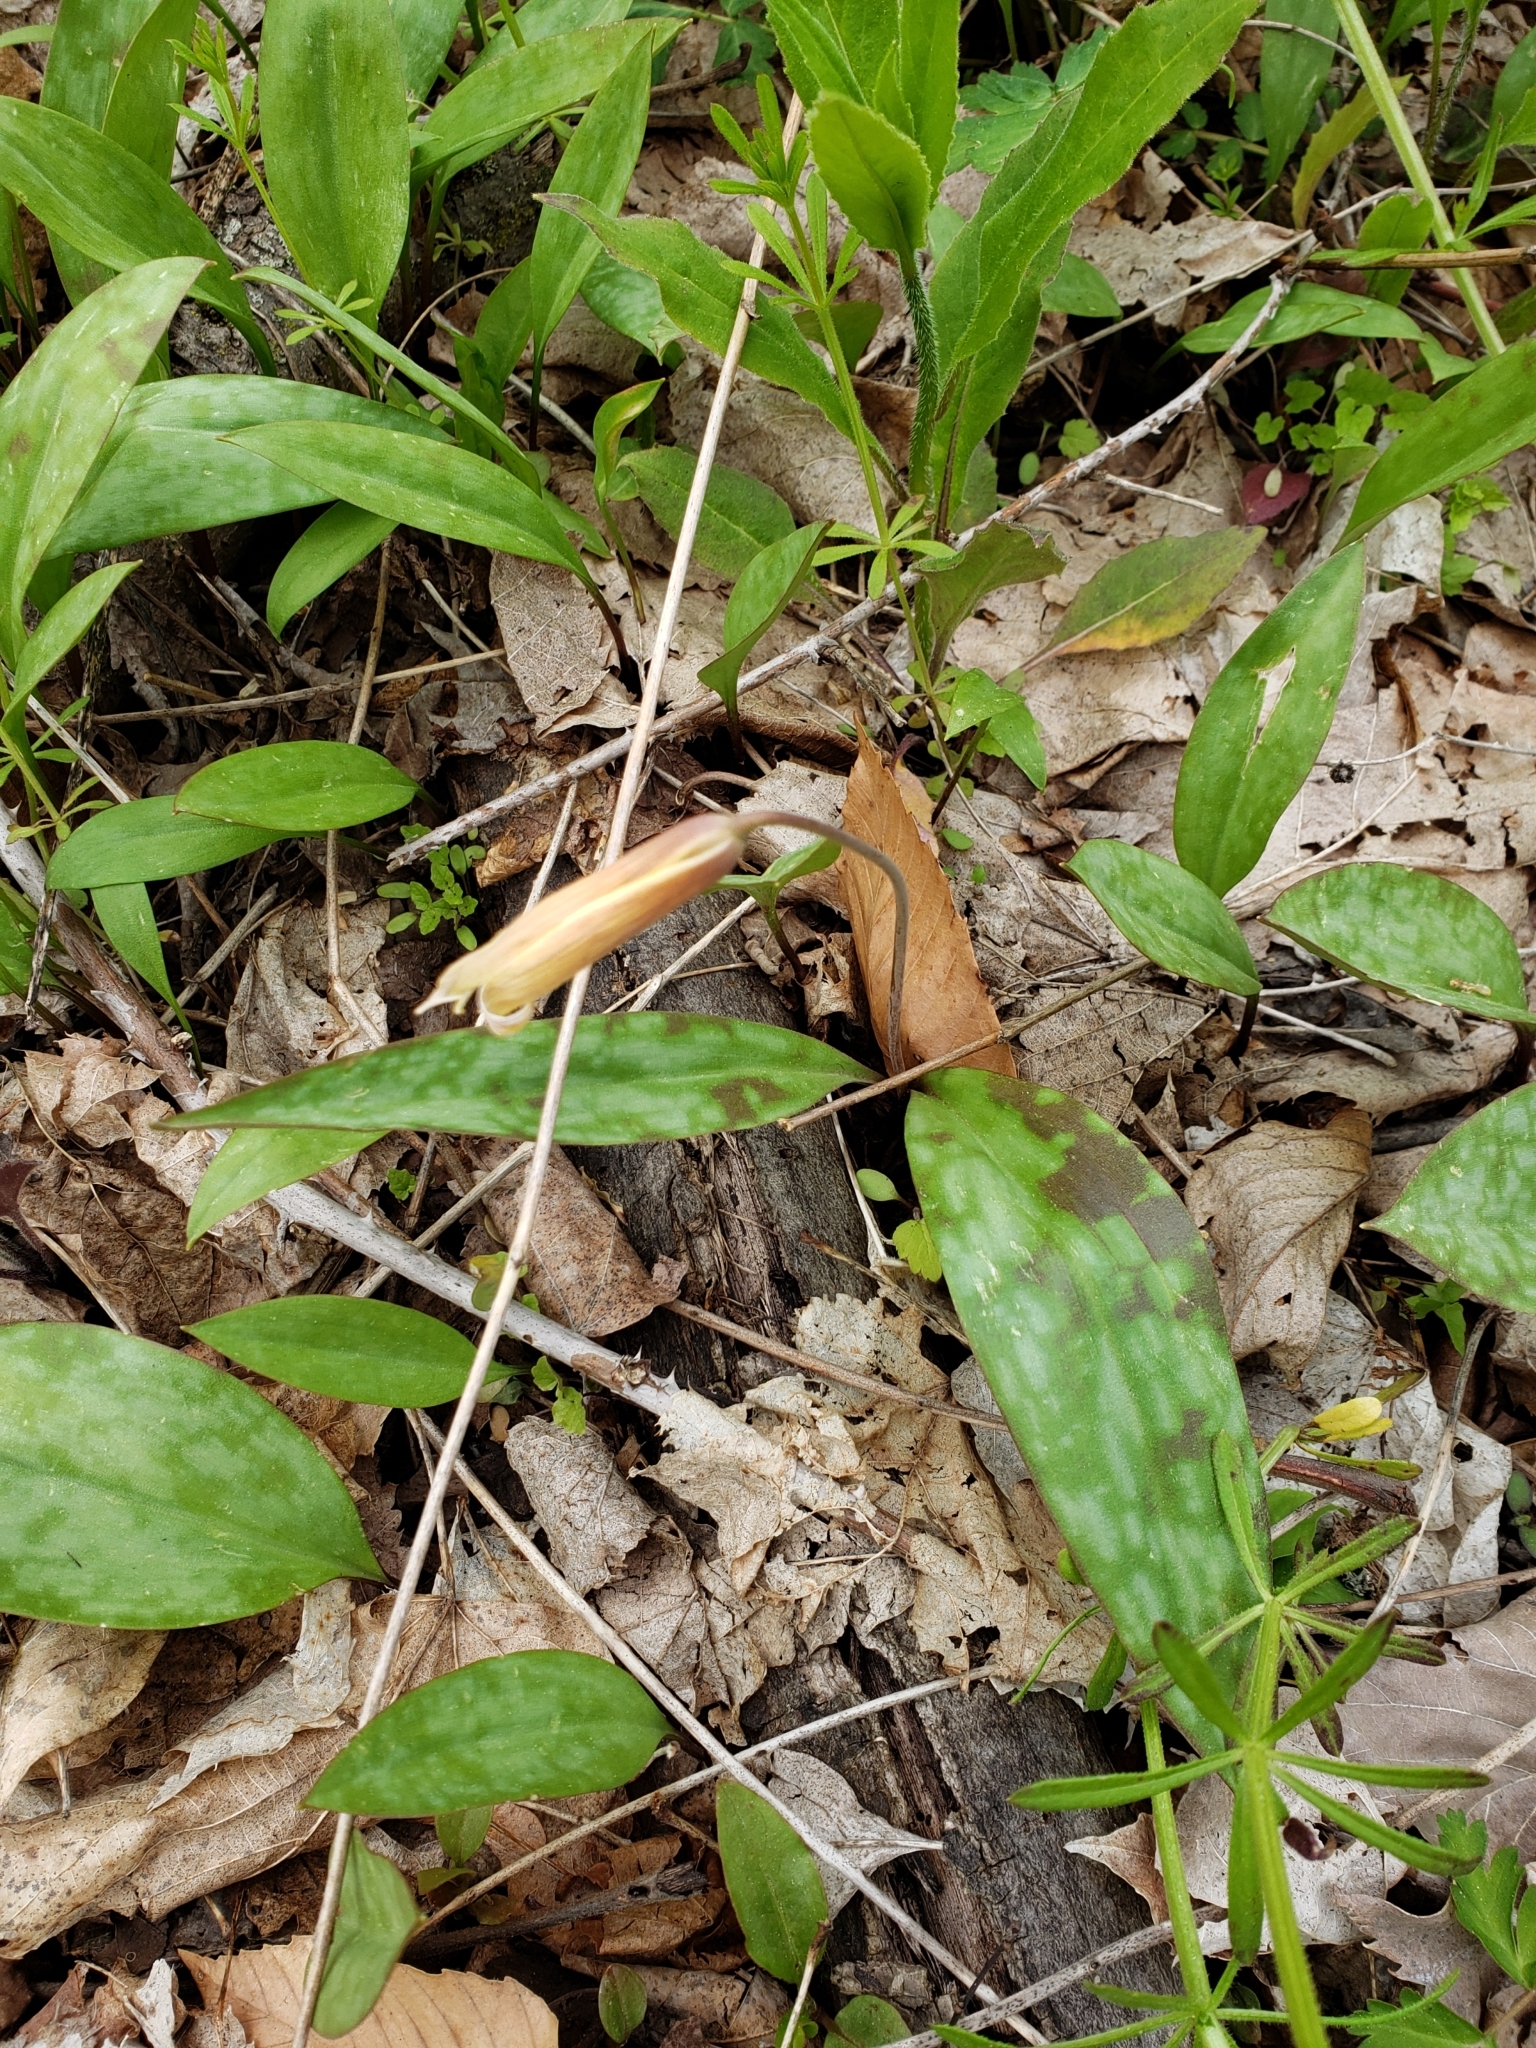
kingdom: Plantae
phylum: Tracheophyta
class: Liliopsida
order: Liliales
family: Liliaceae
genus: Erythronium
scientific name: Erythronium americanum
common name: Yellow adder's-tongue
